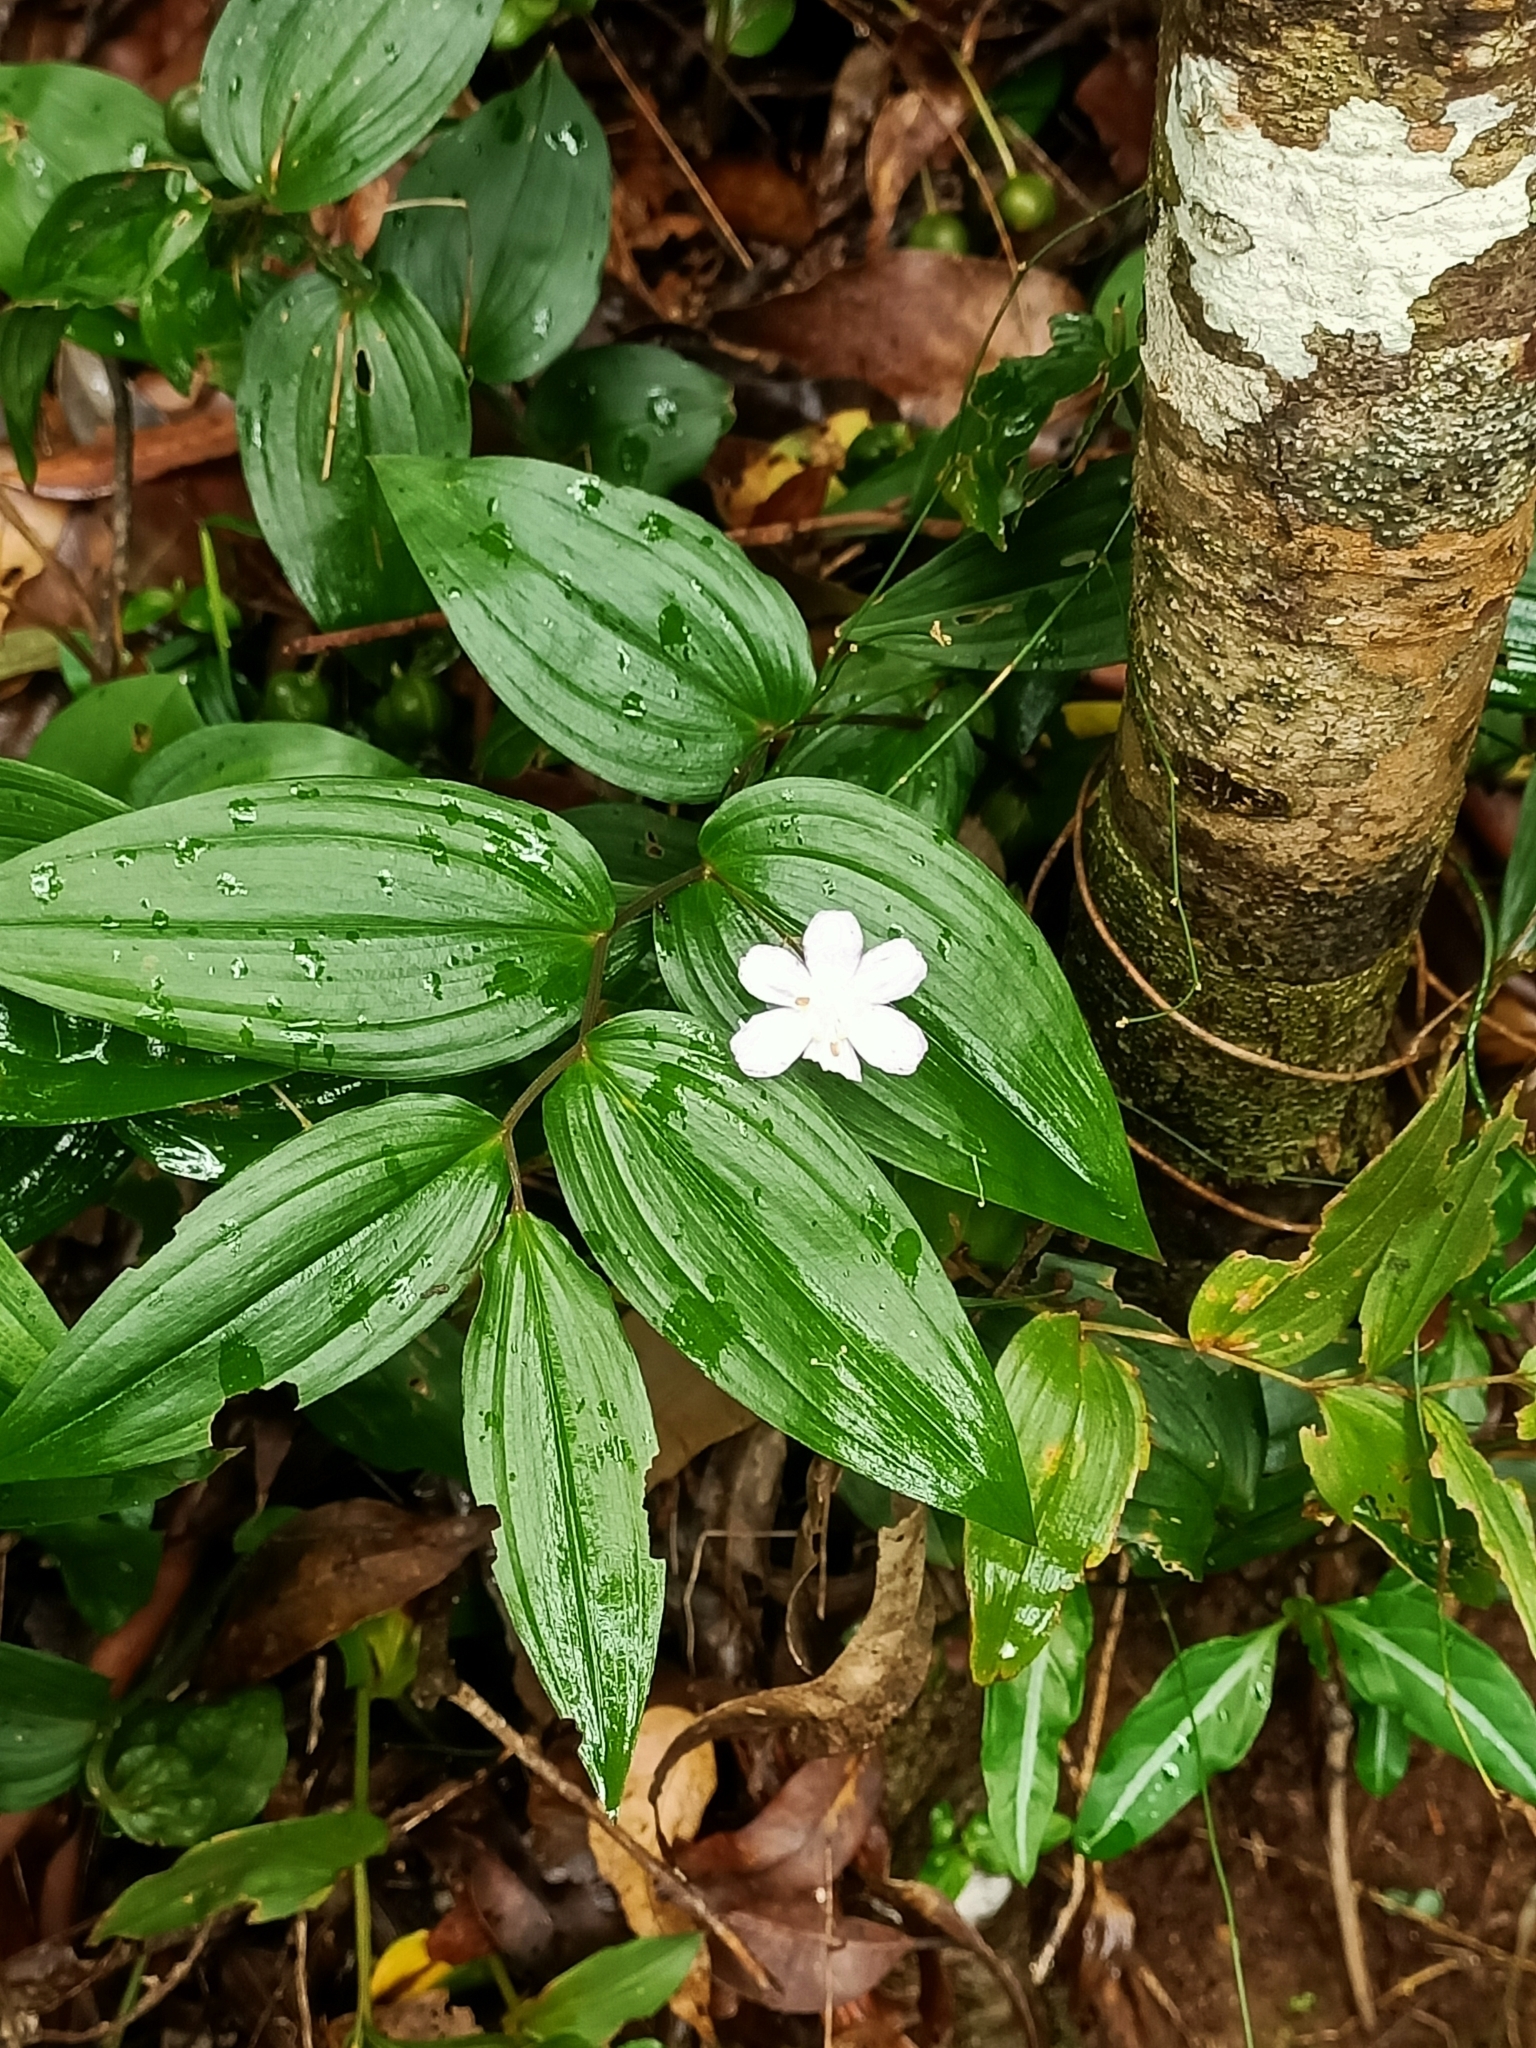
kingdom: Plantae
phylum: Tracheophyta
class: Liliopsida
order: Liliales
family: Colchicaceae
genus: Tripladenia
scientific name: Tripladenia cunninghamii
